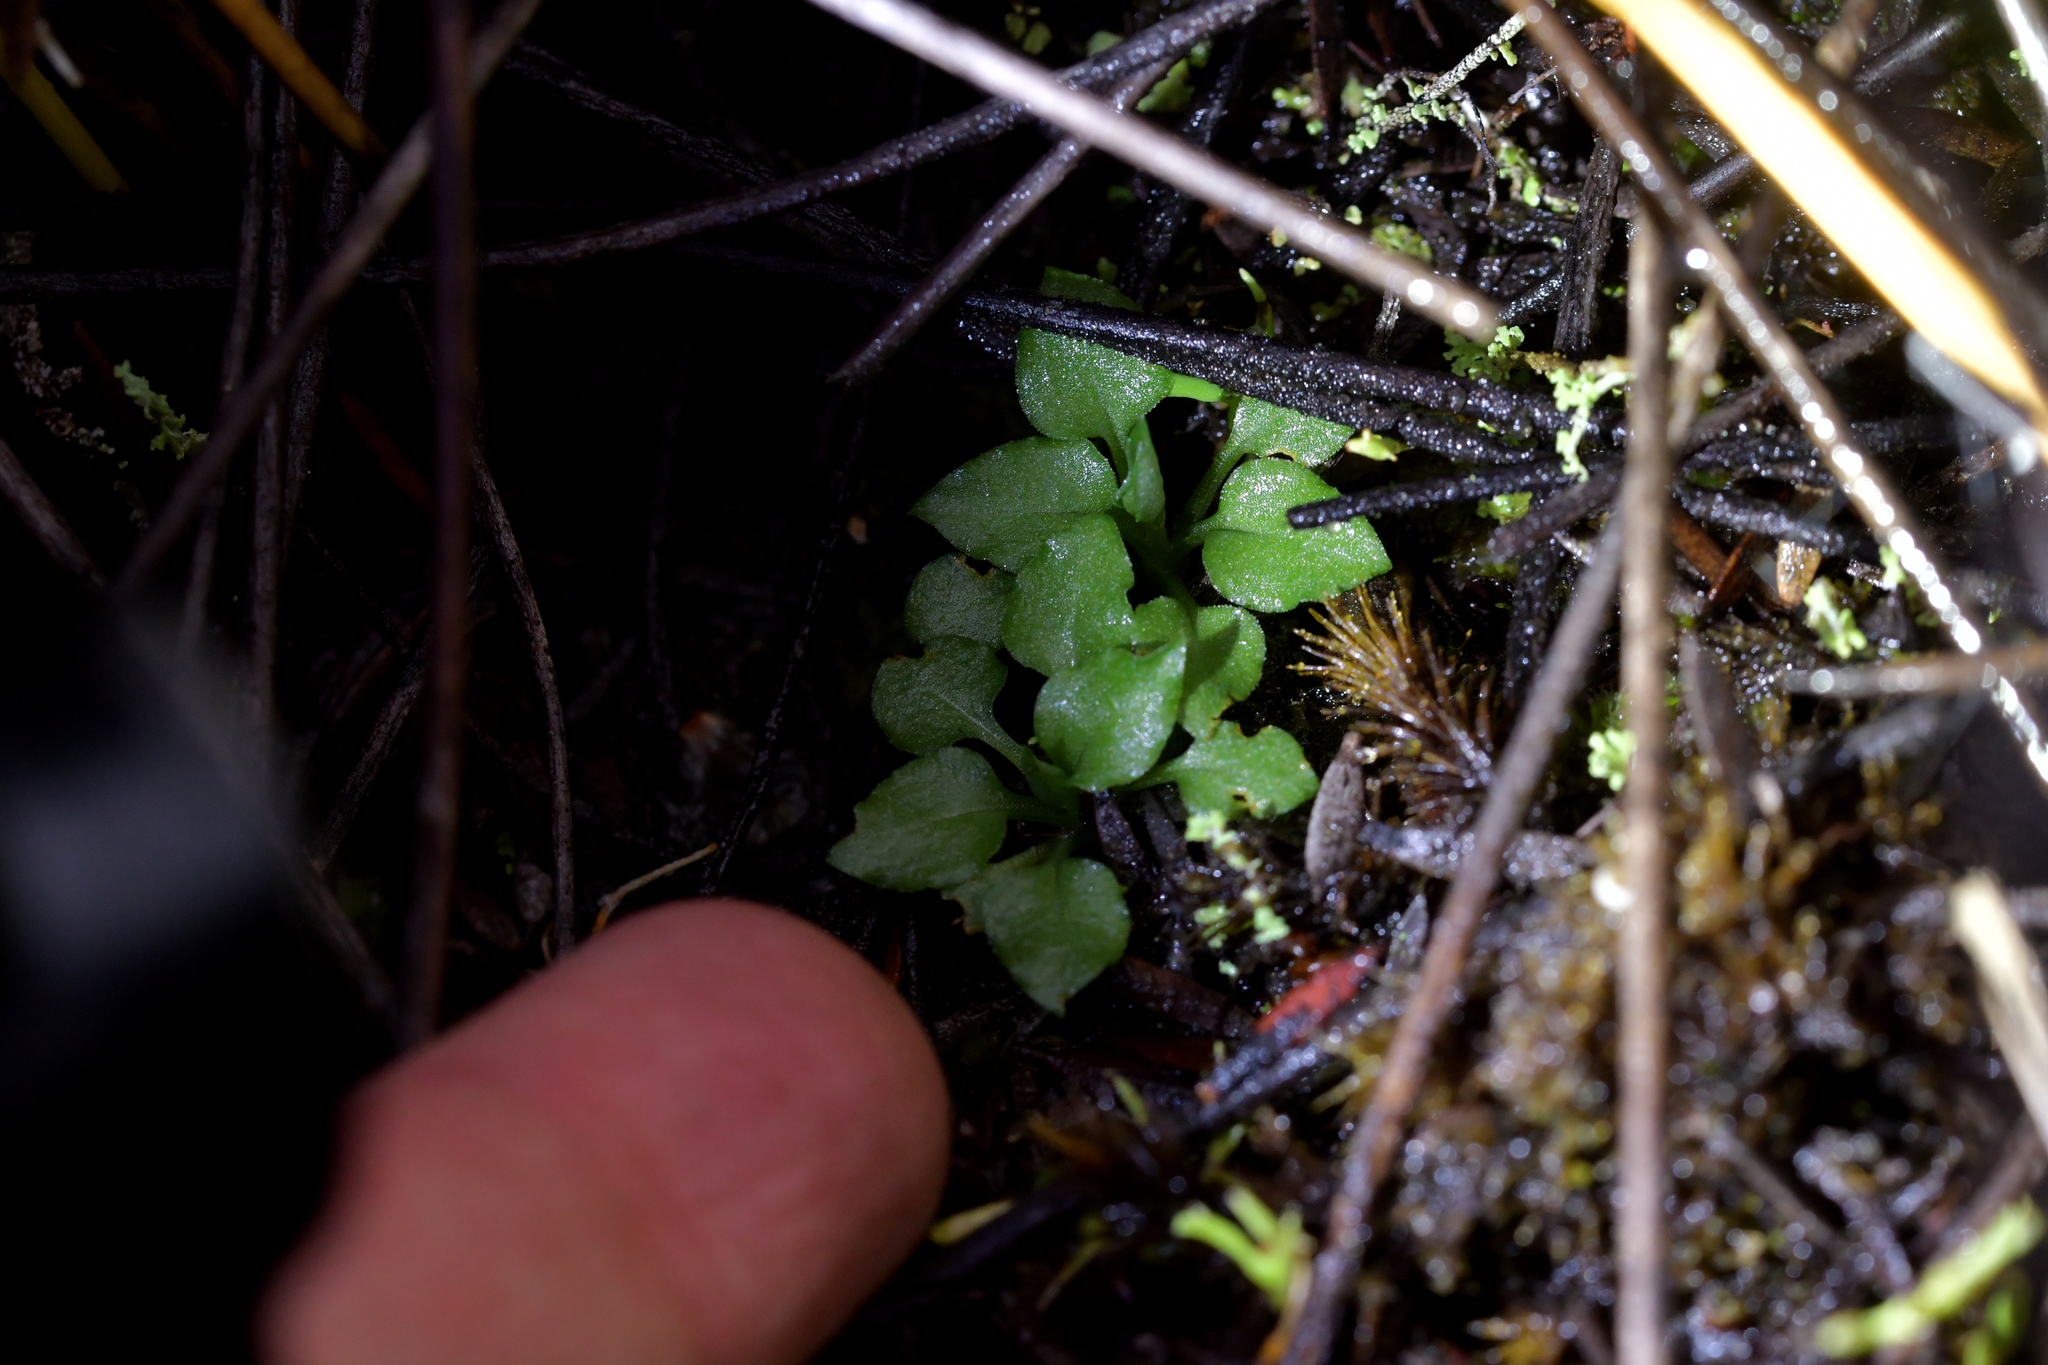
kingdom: Plantae
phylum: Tracheophyta
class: Liliopsida
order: Asparagales
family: Orchidaceae
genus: Pterostylis
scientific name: Pterostylis puberula
